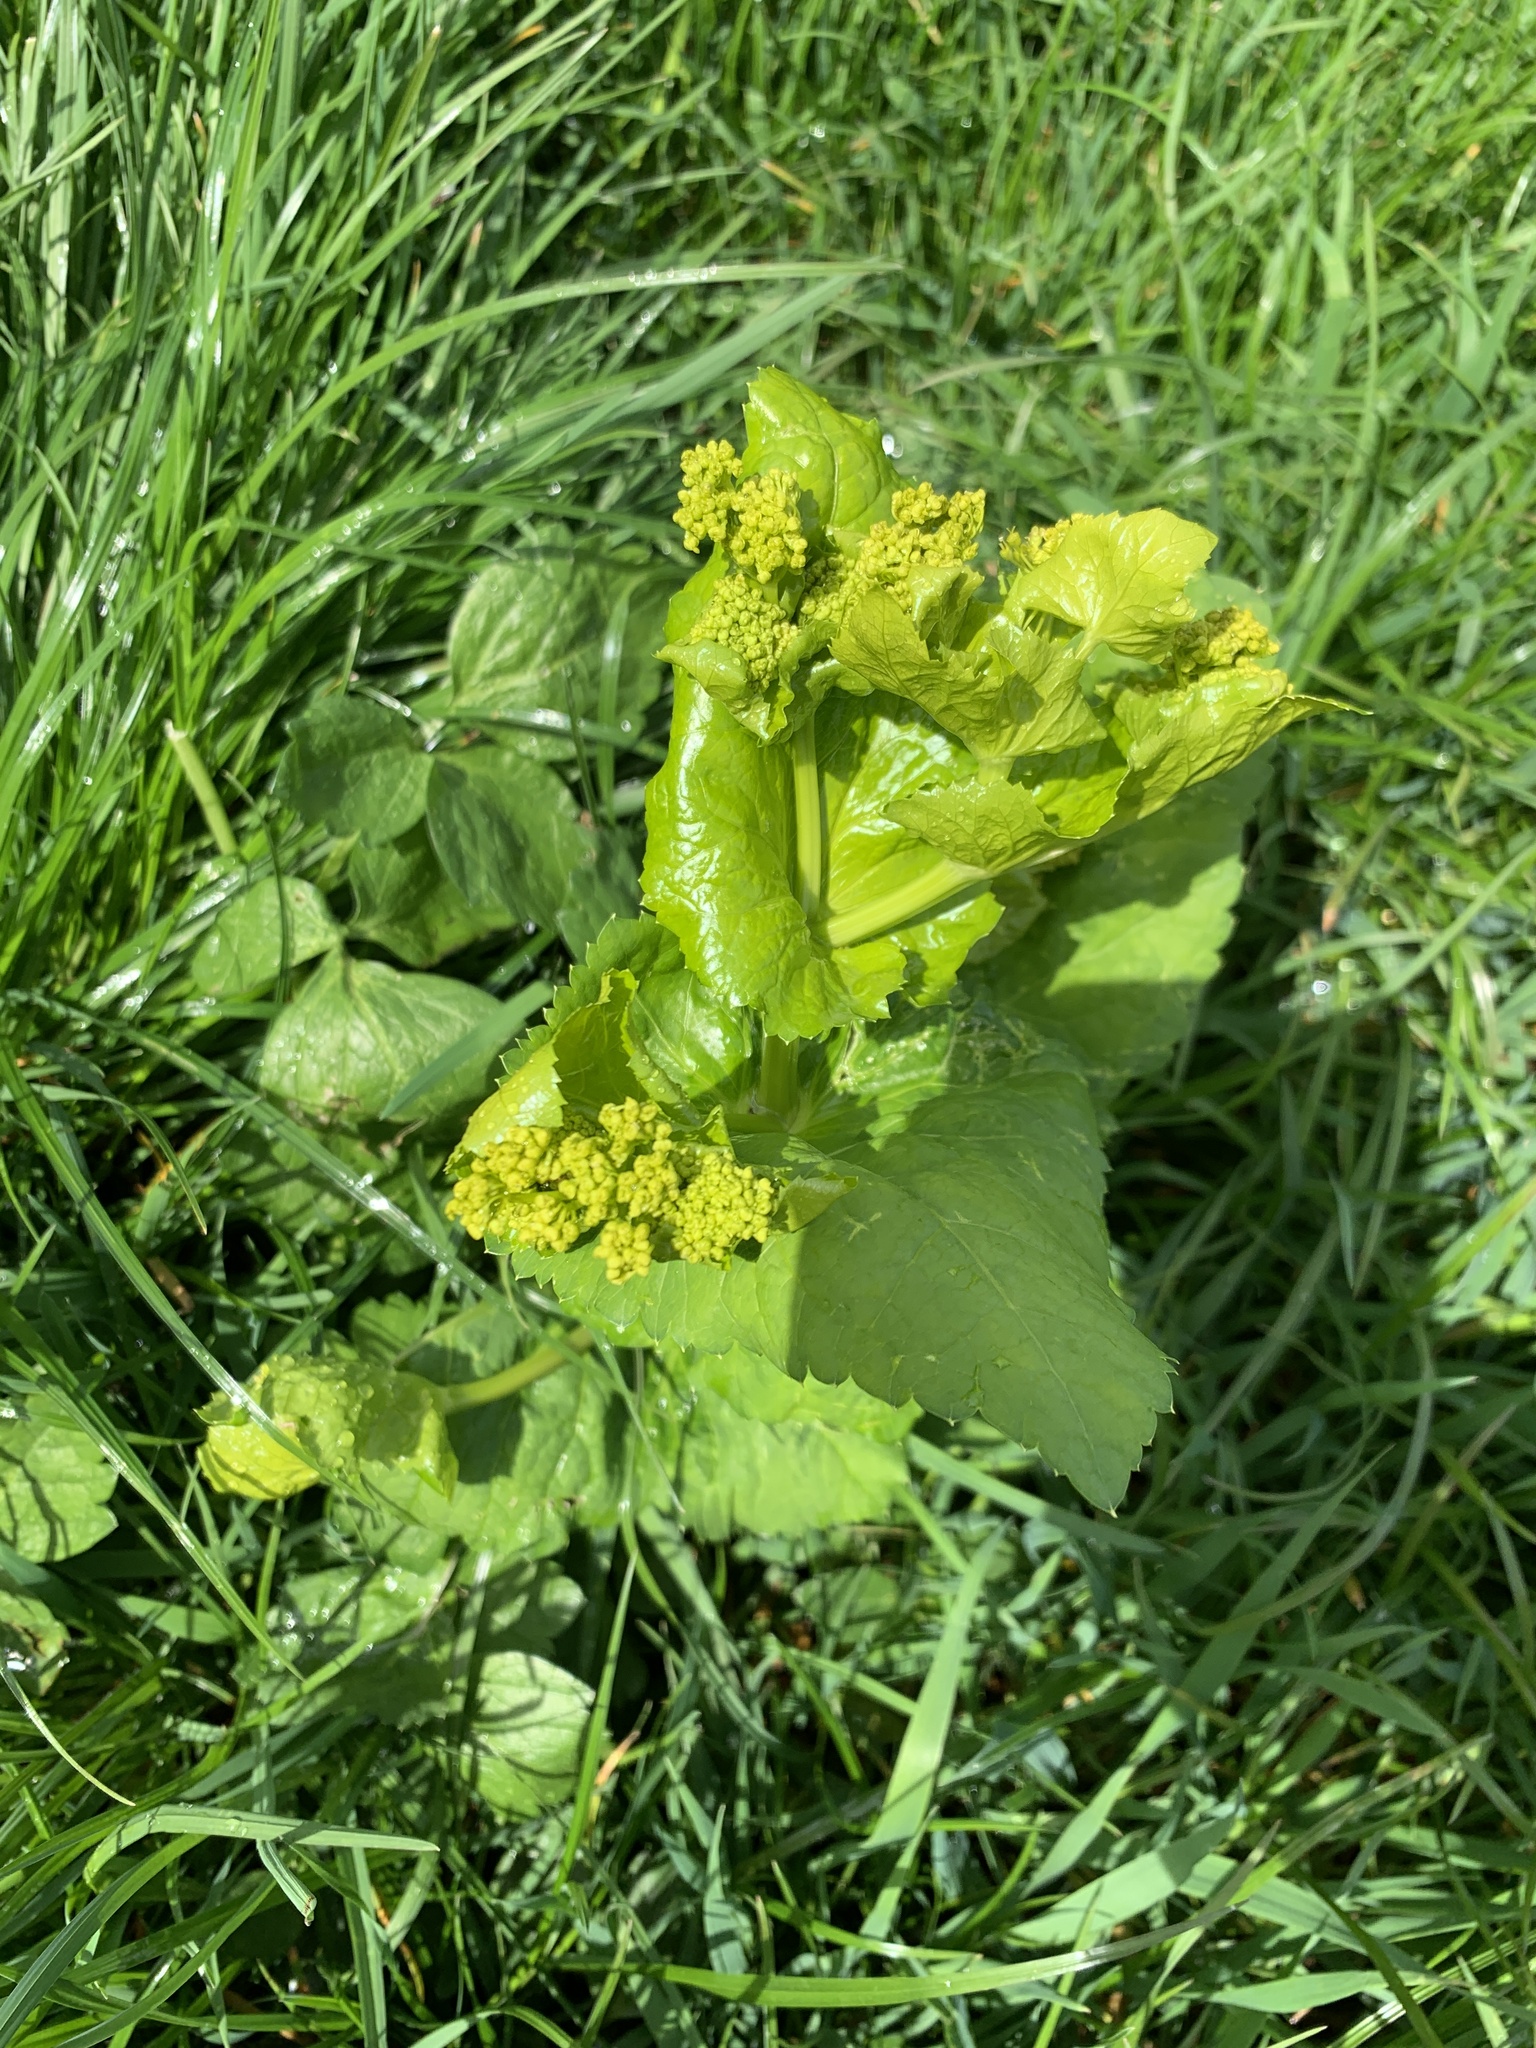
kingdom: Plantae
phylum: Tracheophyta
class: Magnoliopsida
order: Apiales
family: Apiaceae
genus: Smyrnium
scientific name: Smyrnium perfoliatum
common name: Perfoliate alexanders
